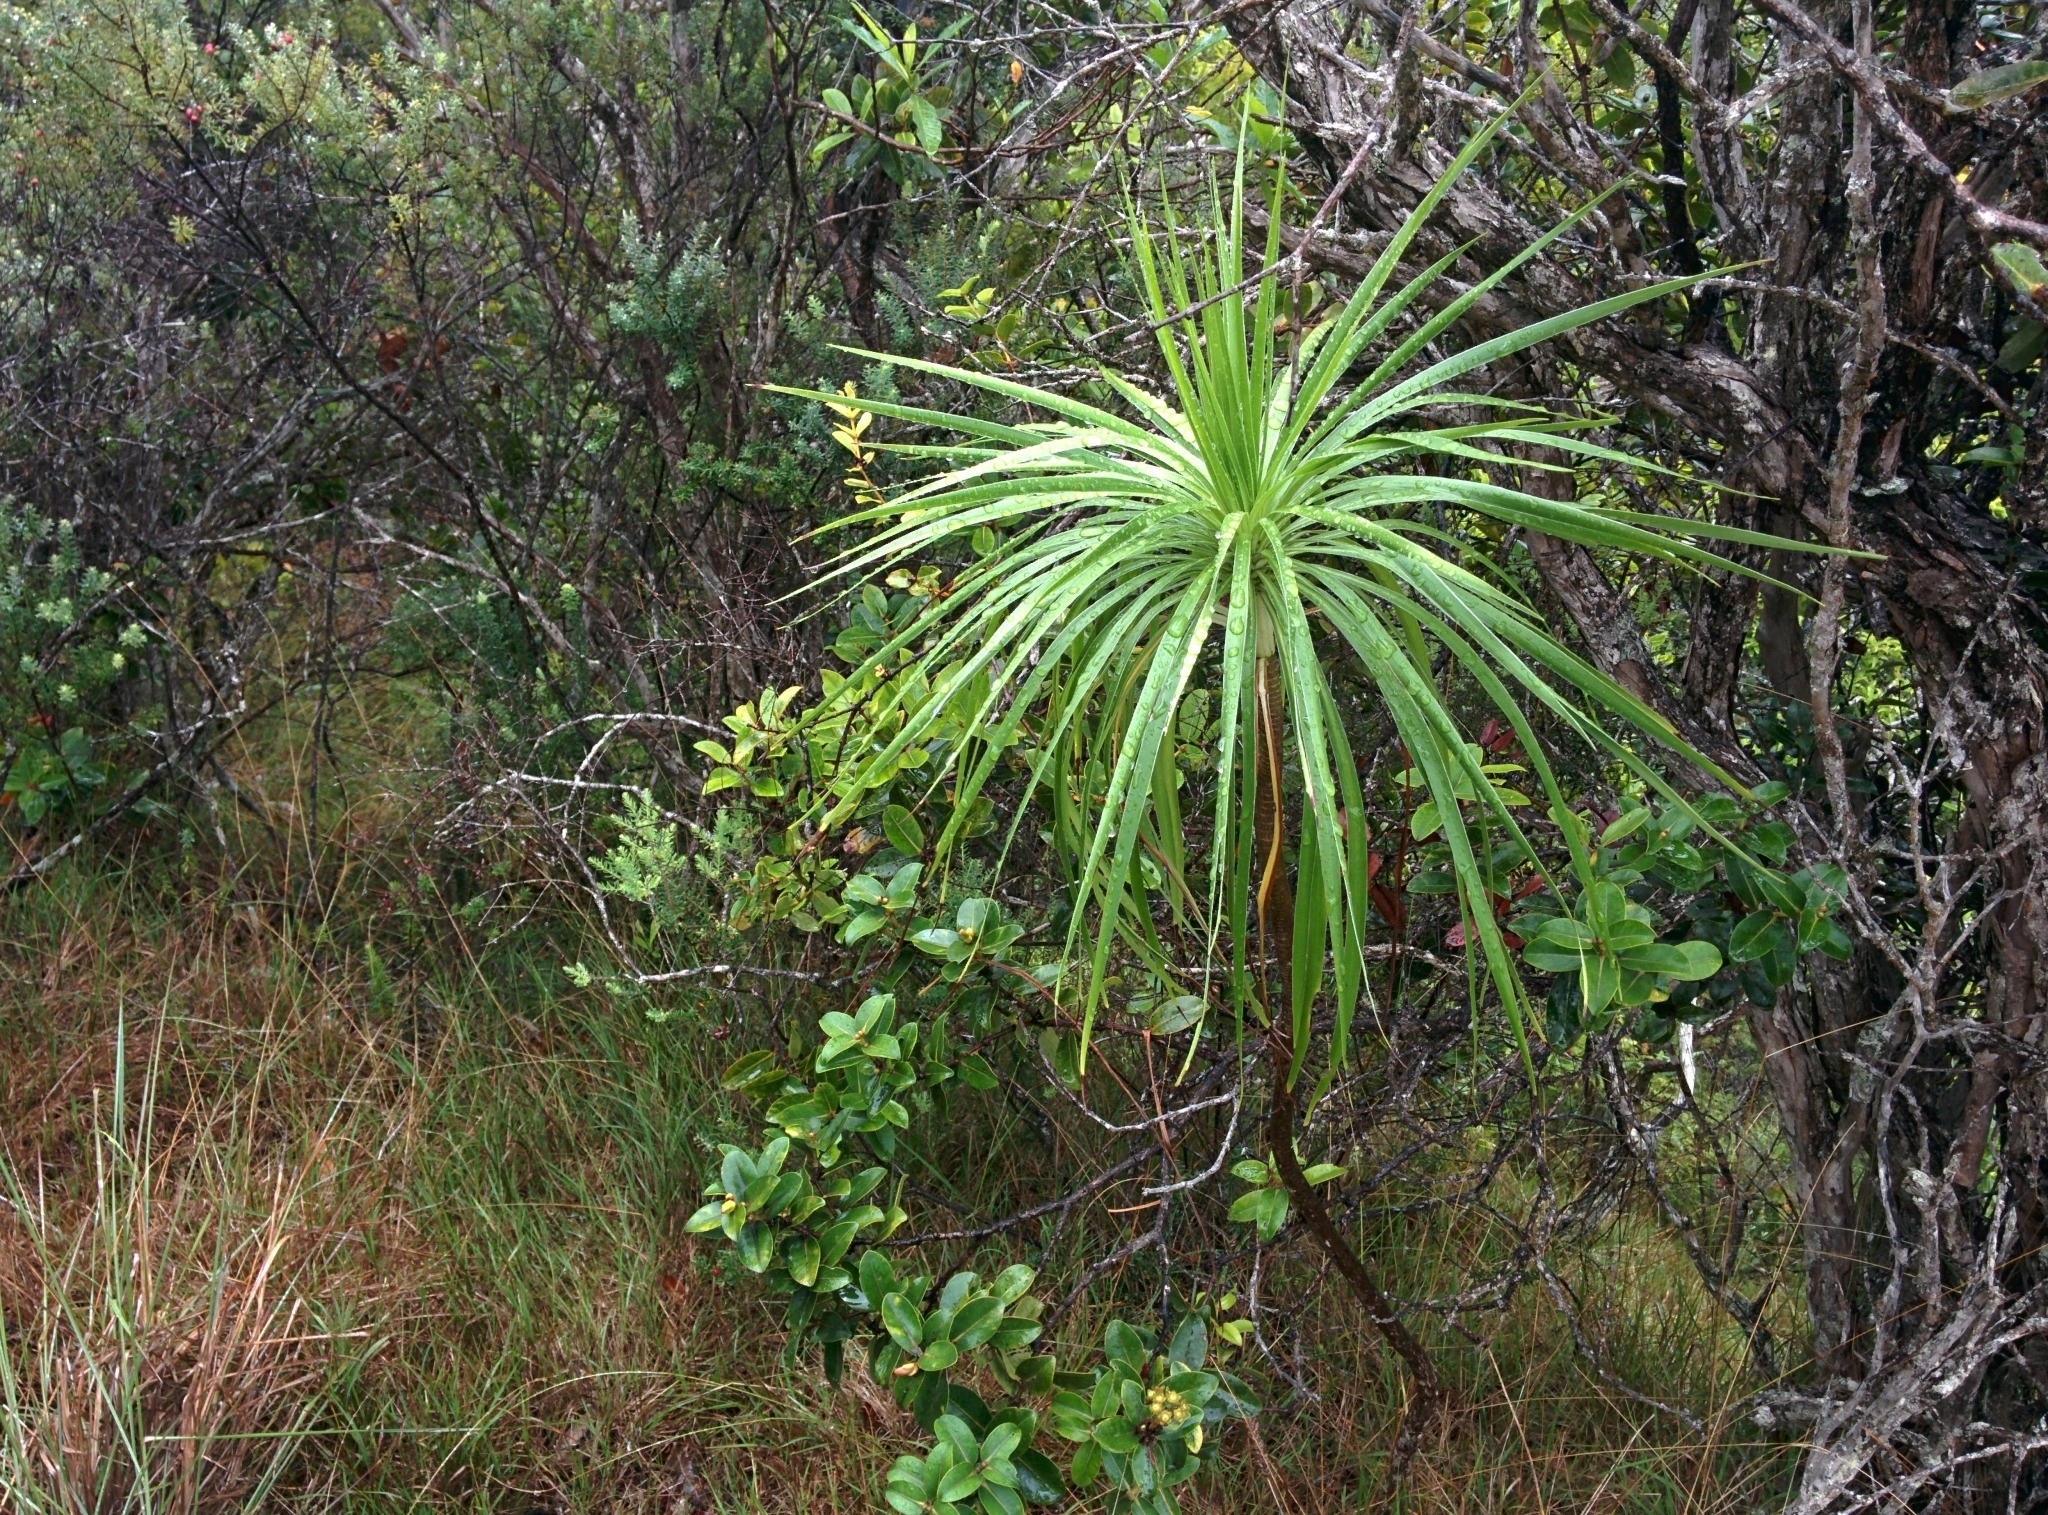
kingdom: Plantae
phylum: Tracheophyta
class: Magnoliopsida
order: Asterales
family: Asteraceae
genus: Wilkesia
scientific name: Wilkesia gymnoxiphium
